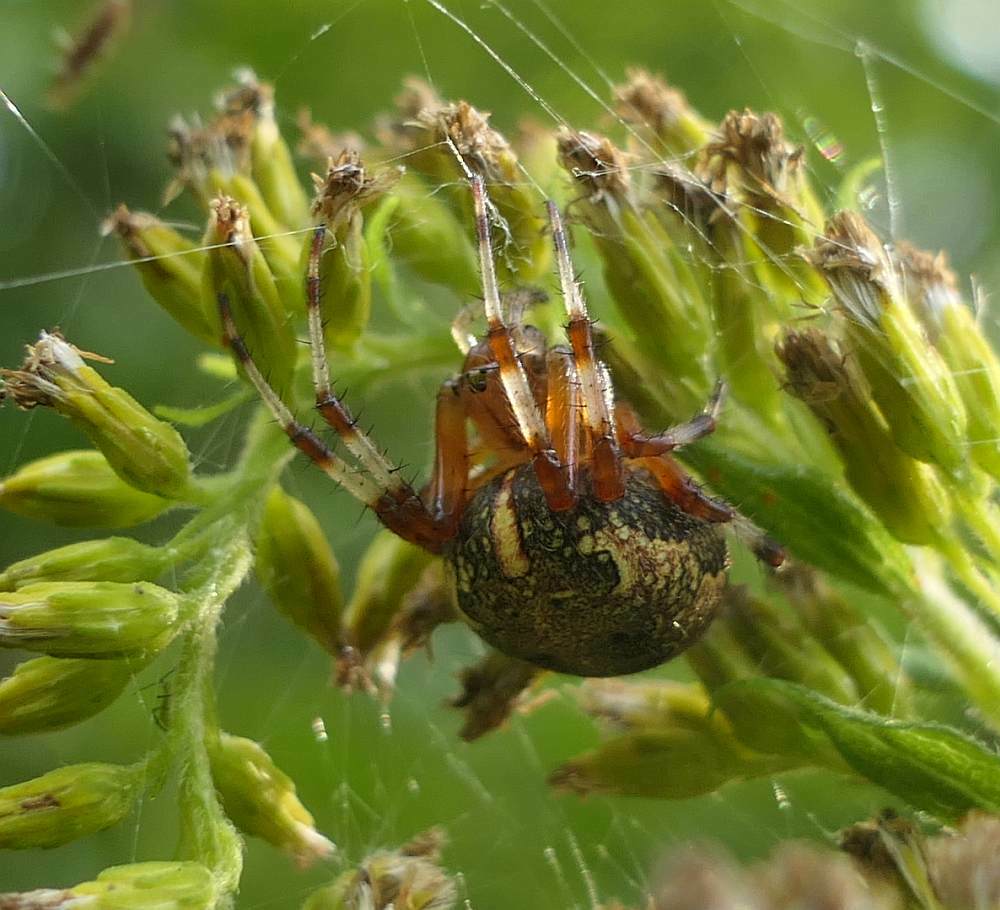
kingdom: Animalia
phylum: Arthropoda
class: Arachnida
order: Araneae
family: Araneidae
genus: Araneus
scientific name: Araneus marmoreus
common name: Marbled orbweaver
